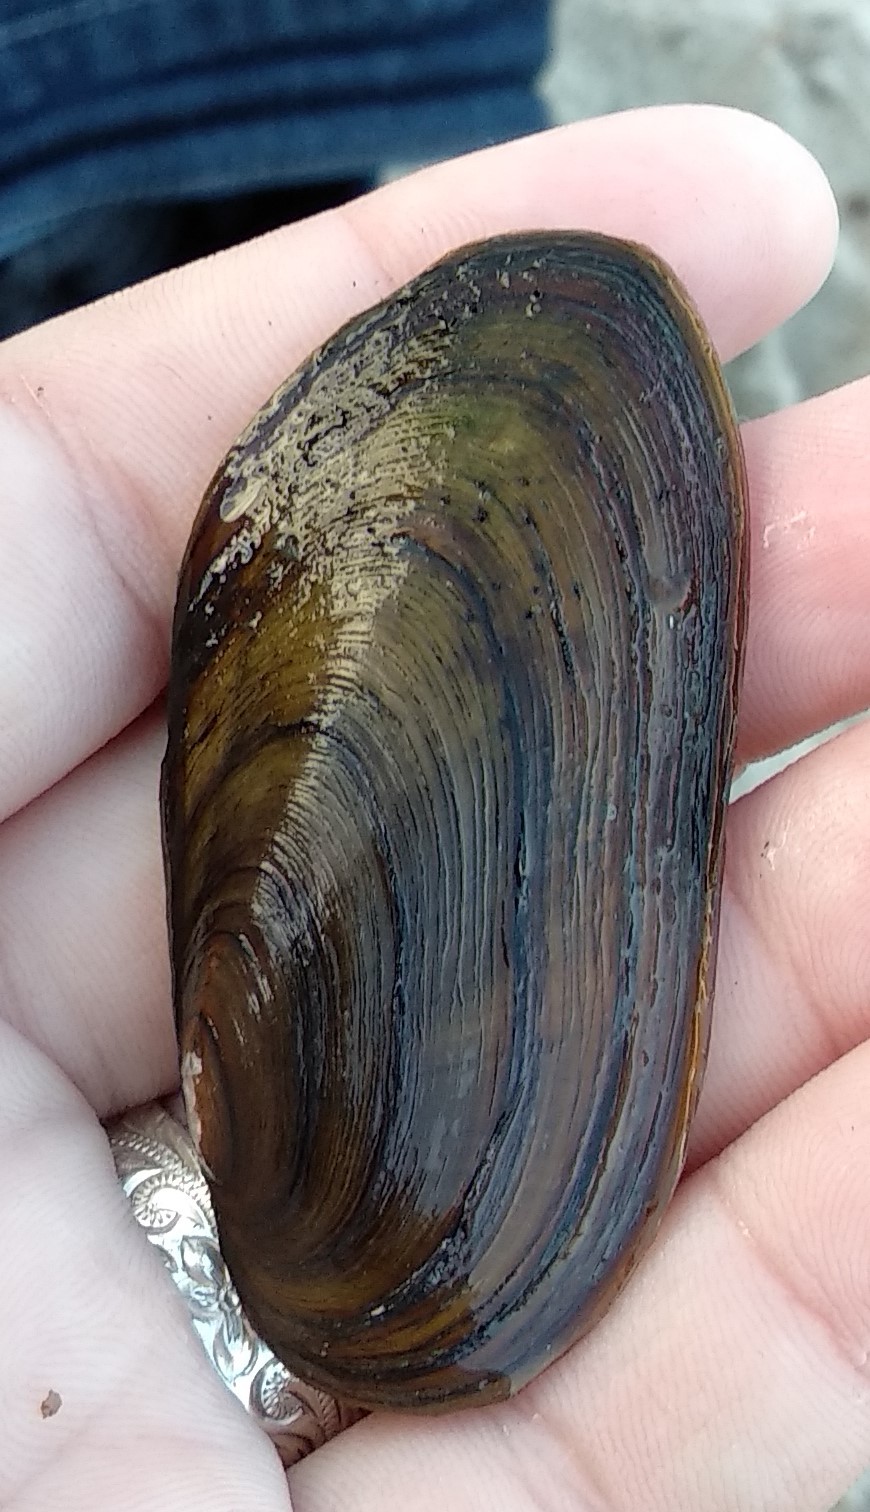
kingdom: Animalia
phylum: Mollusca
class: Bivalvia
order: Unionida
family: Unionidae
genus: Elliptio
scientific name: Elliptio complanata
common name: Eastern elliptio
